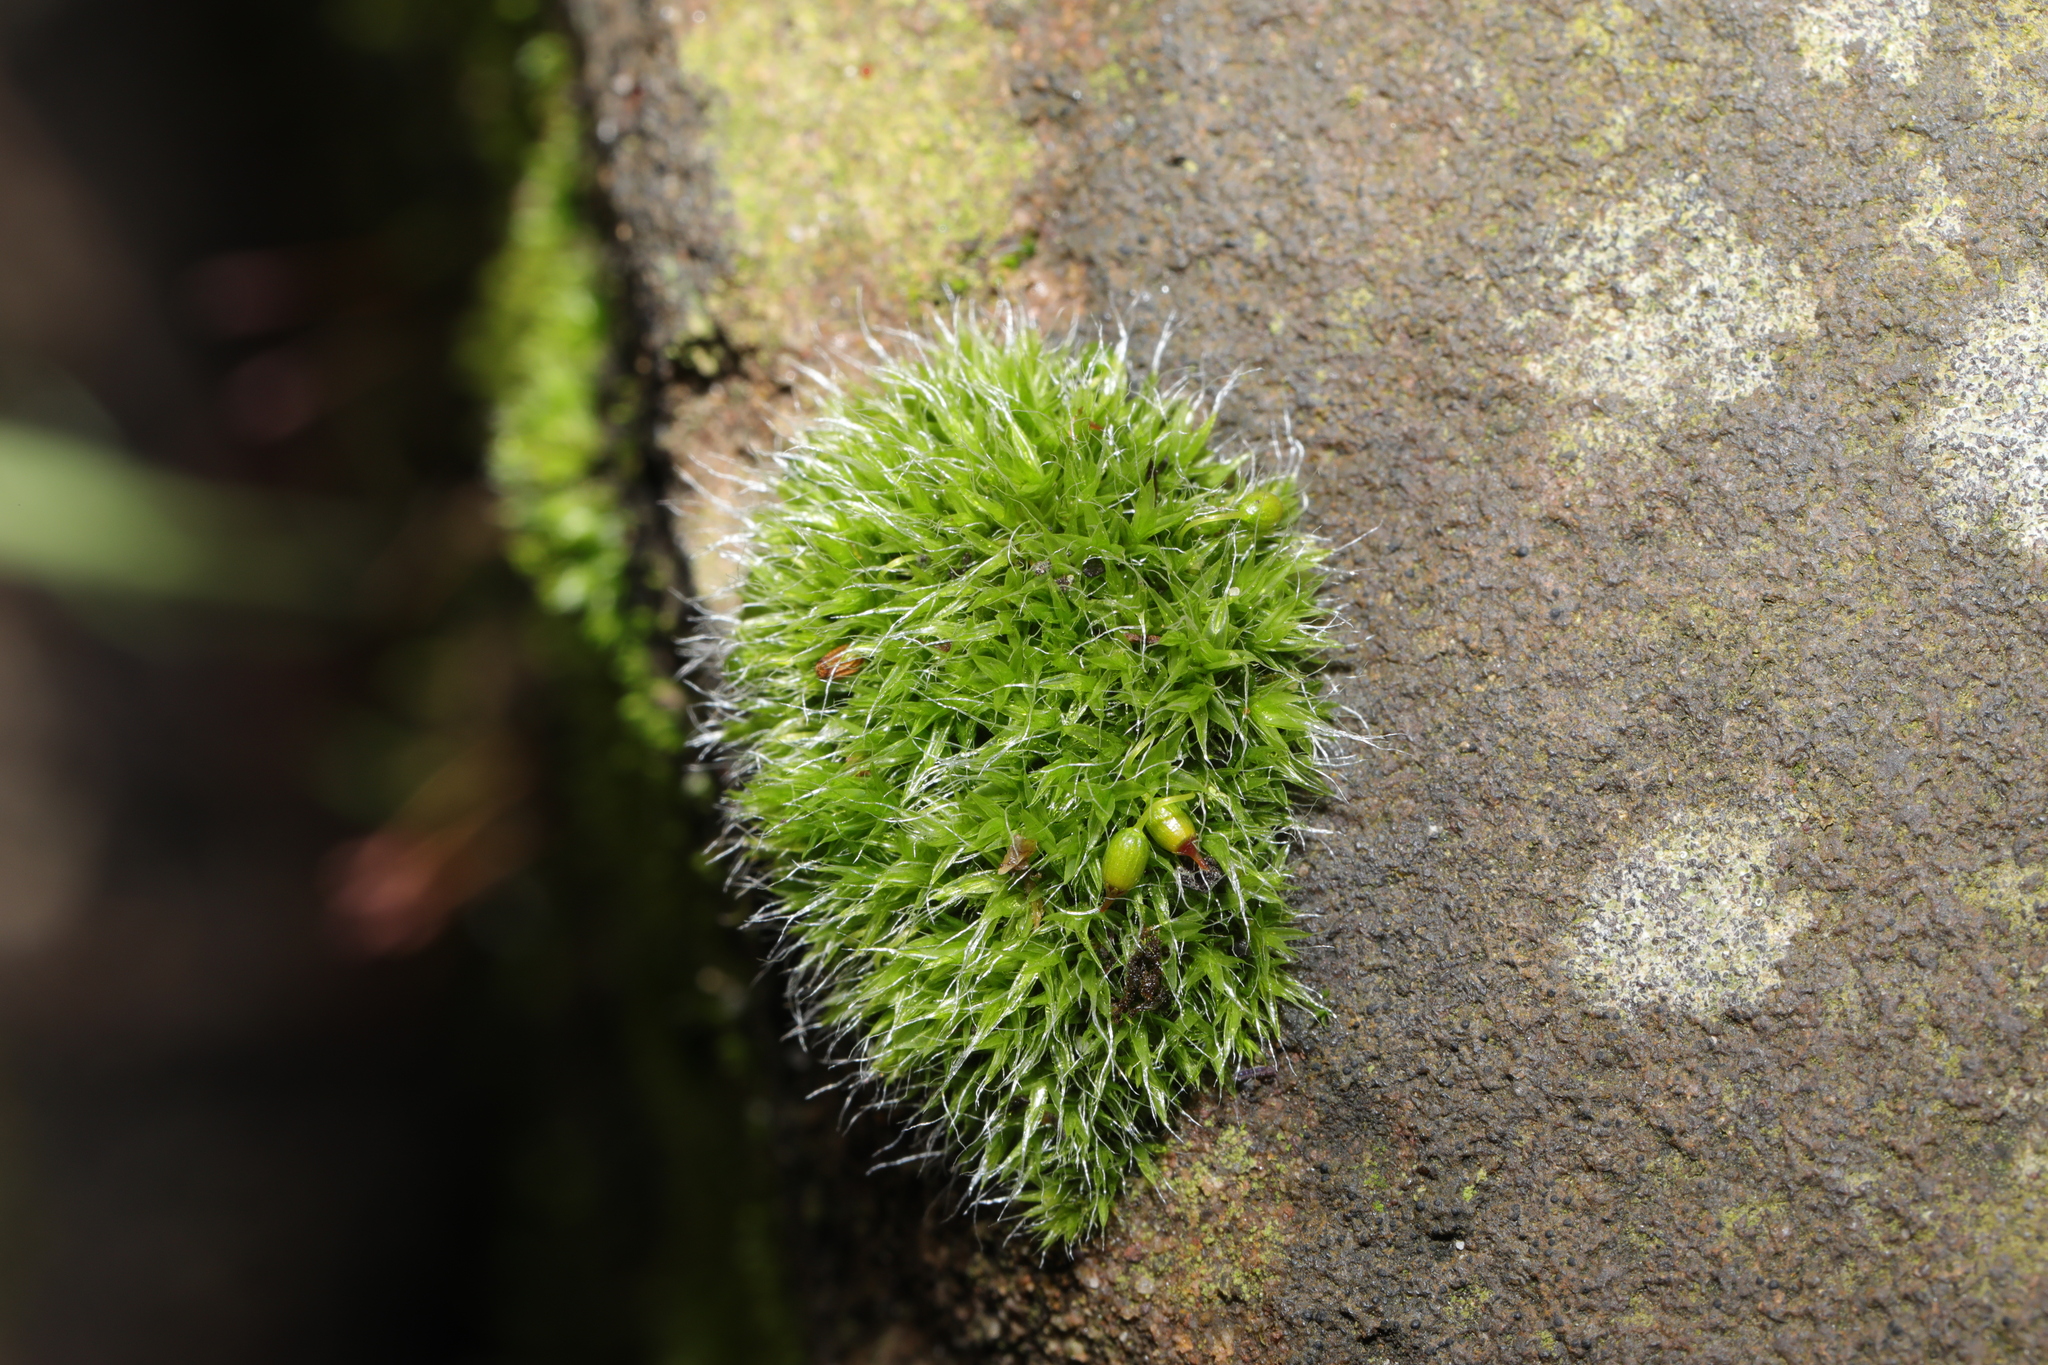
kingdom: Plantae
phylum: Bryophyta
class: Bryopsida
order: Grimmiales
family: Grimmiaceae
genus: Grimmia
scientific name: Grimmia pulvinata
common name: Grey-cushioned grimmia
